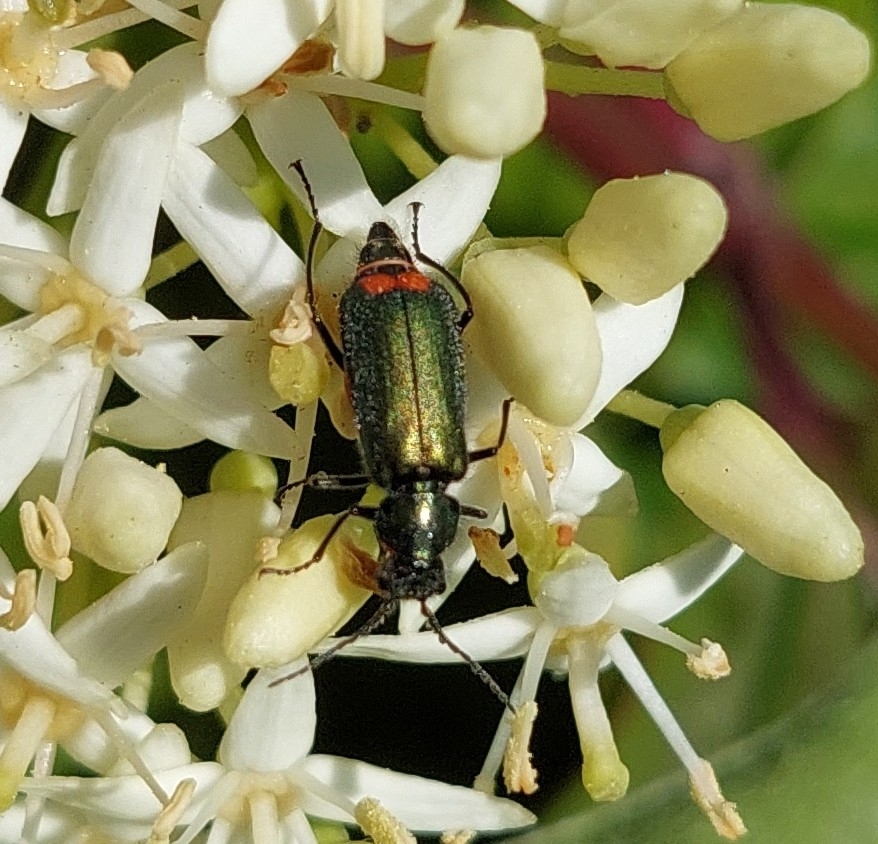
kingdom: Animalia
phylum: Arthropoda
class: Insecta
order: Coleoptera
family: Melyridae
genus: Malachius
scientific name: Malachius bipustulatus
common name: Malachite beetle
